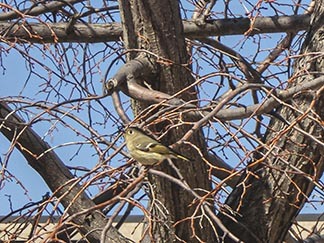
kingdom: Animalia
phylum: Chordata
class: Aves
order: Passeriformes
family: Regulidae
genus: Regulus
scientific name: Regulus calendula
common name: Ruby-crowned kinglet
